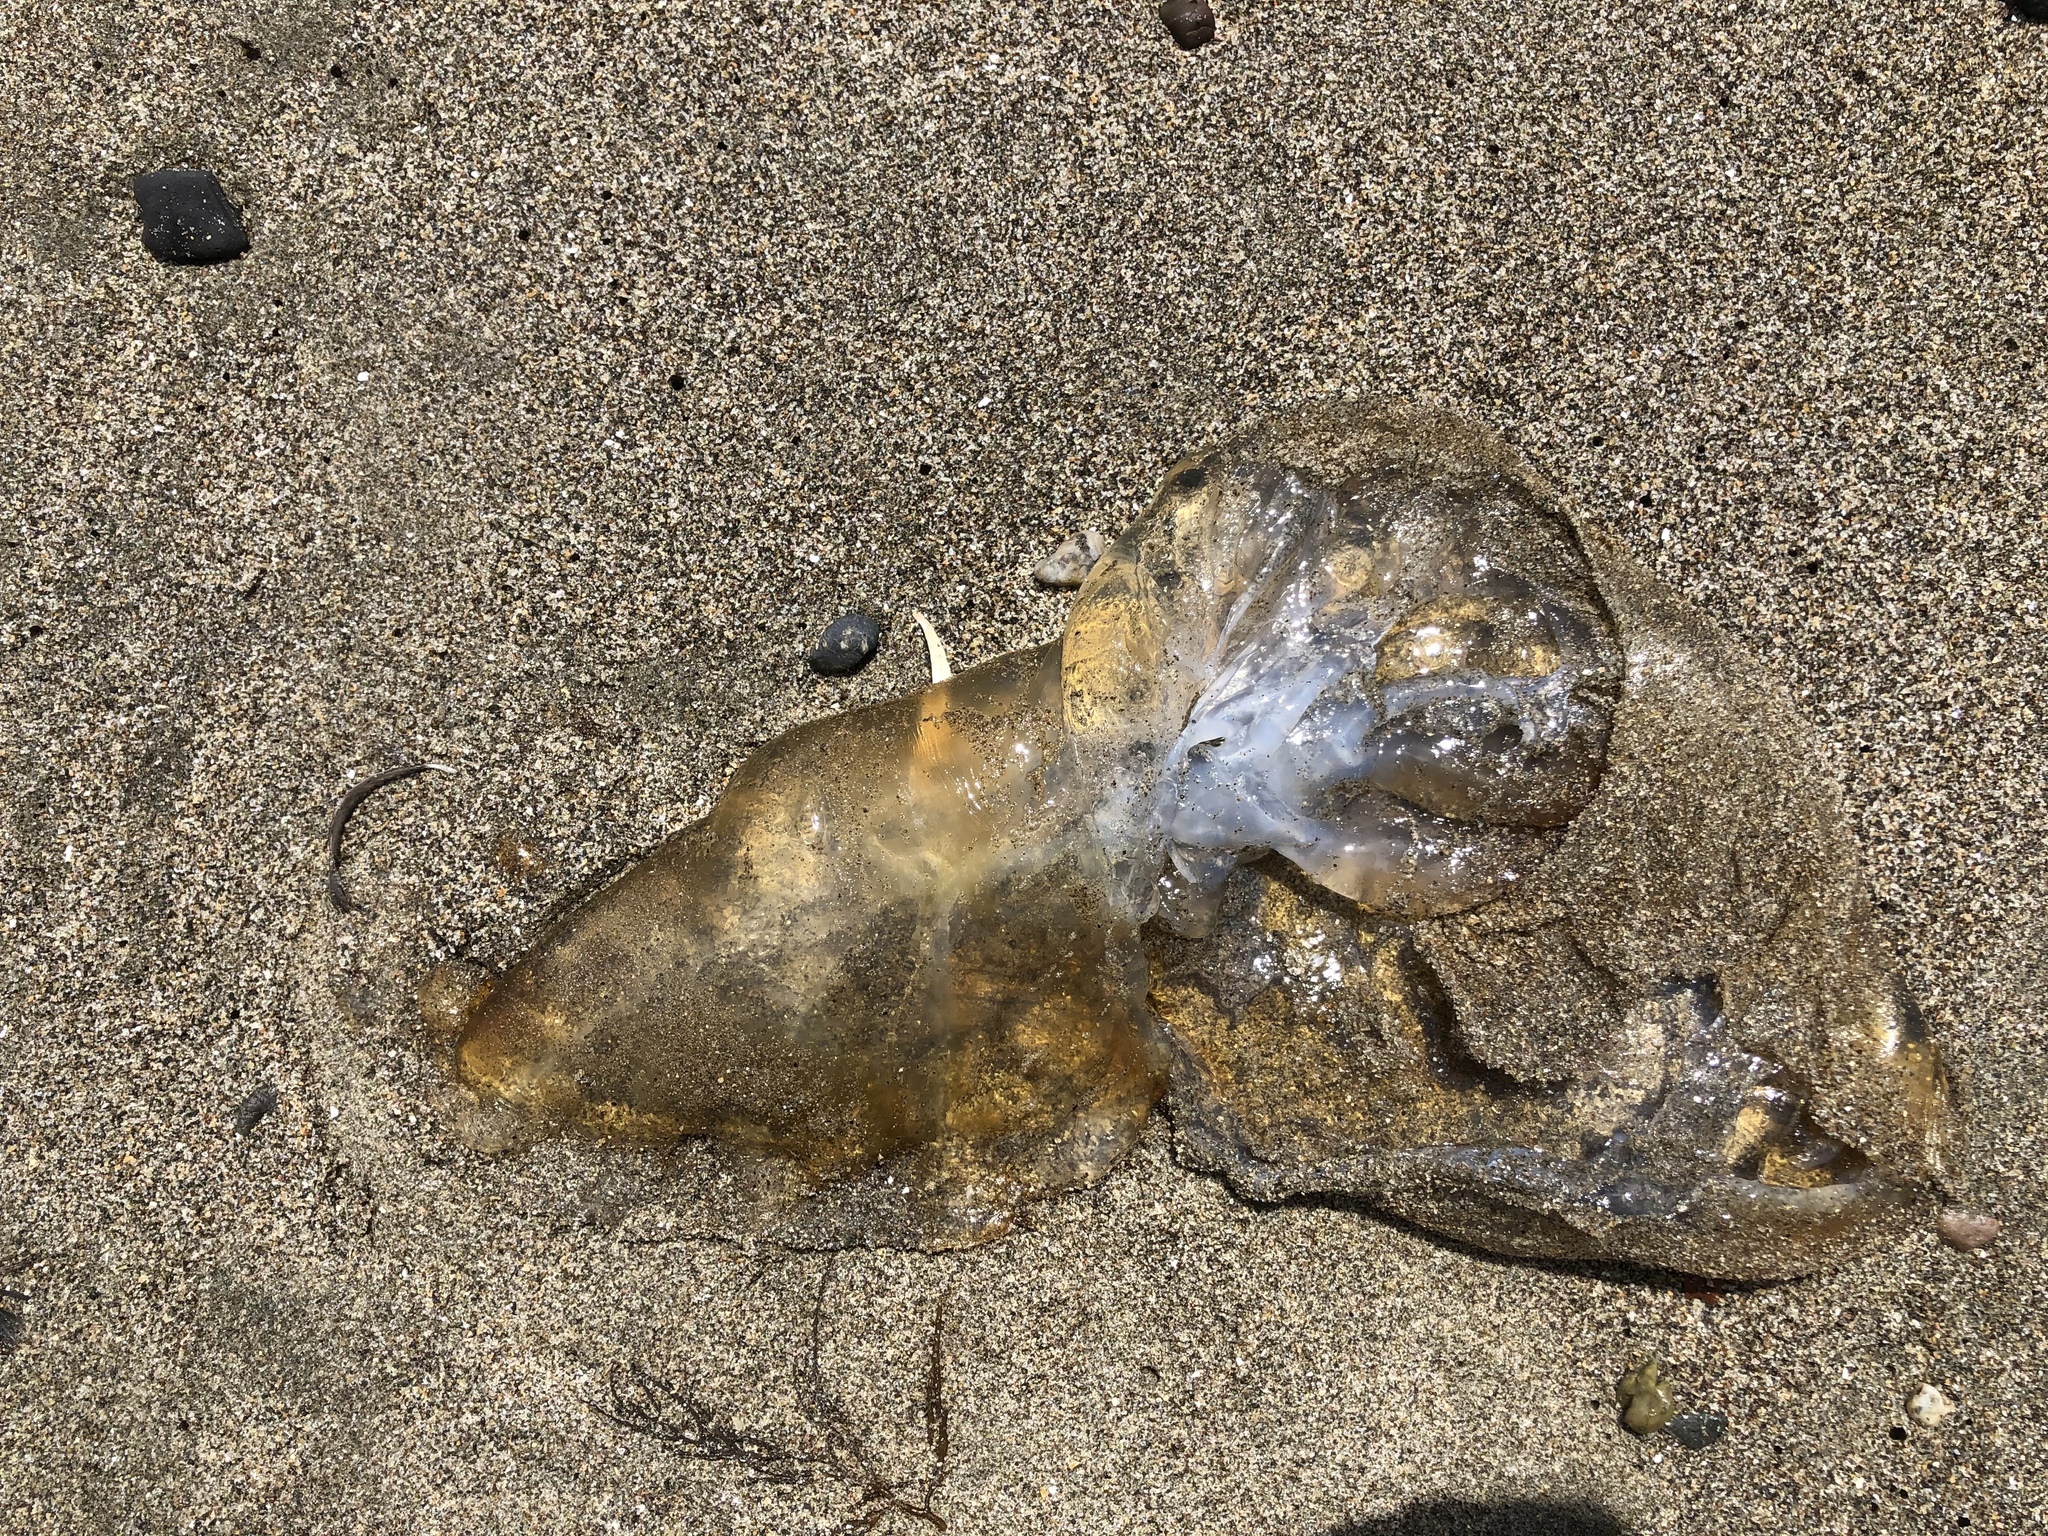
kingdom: Animalia
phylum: Cnidaria
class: Scyphozoa
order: Semaeostomeae
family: Pelagiidae
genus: Chrysaora
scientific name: Chrysaora fuscescens
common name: Sea nettle
